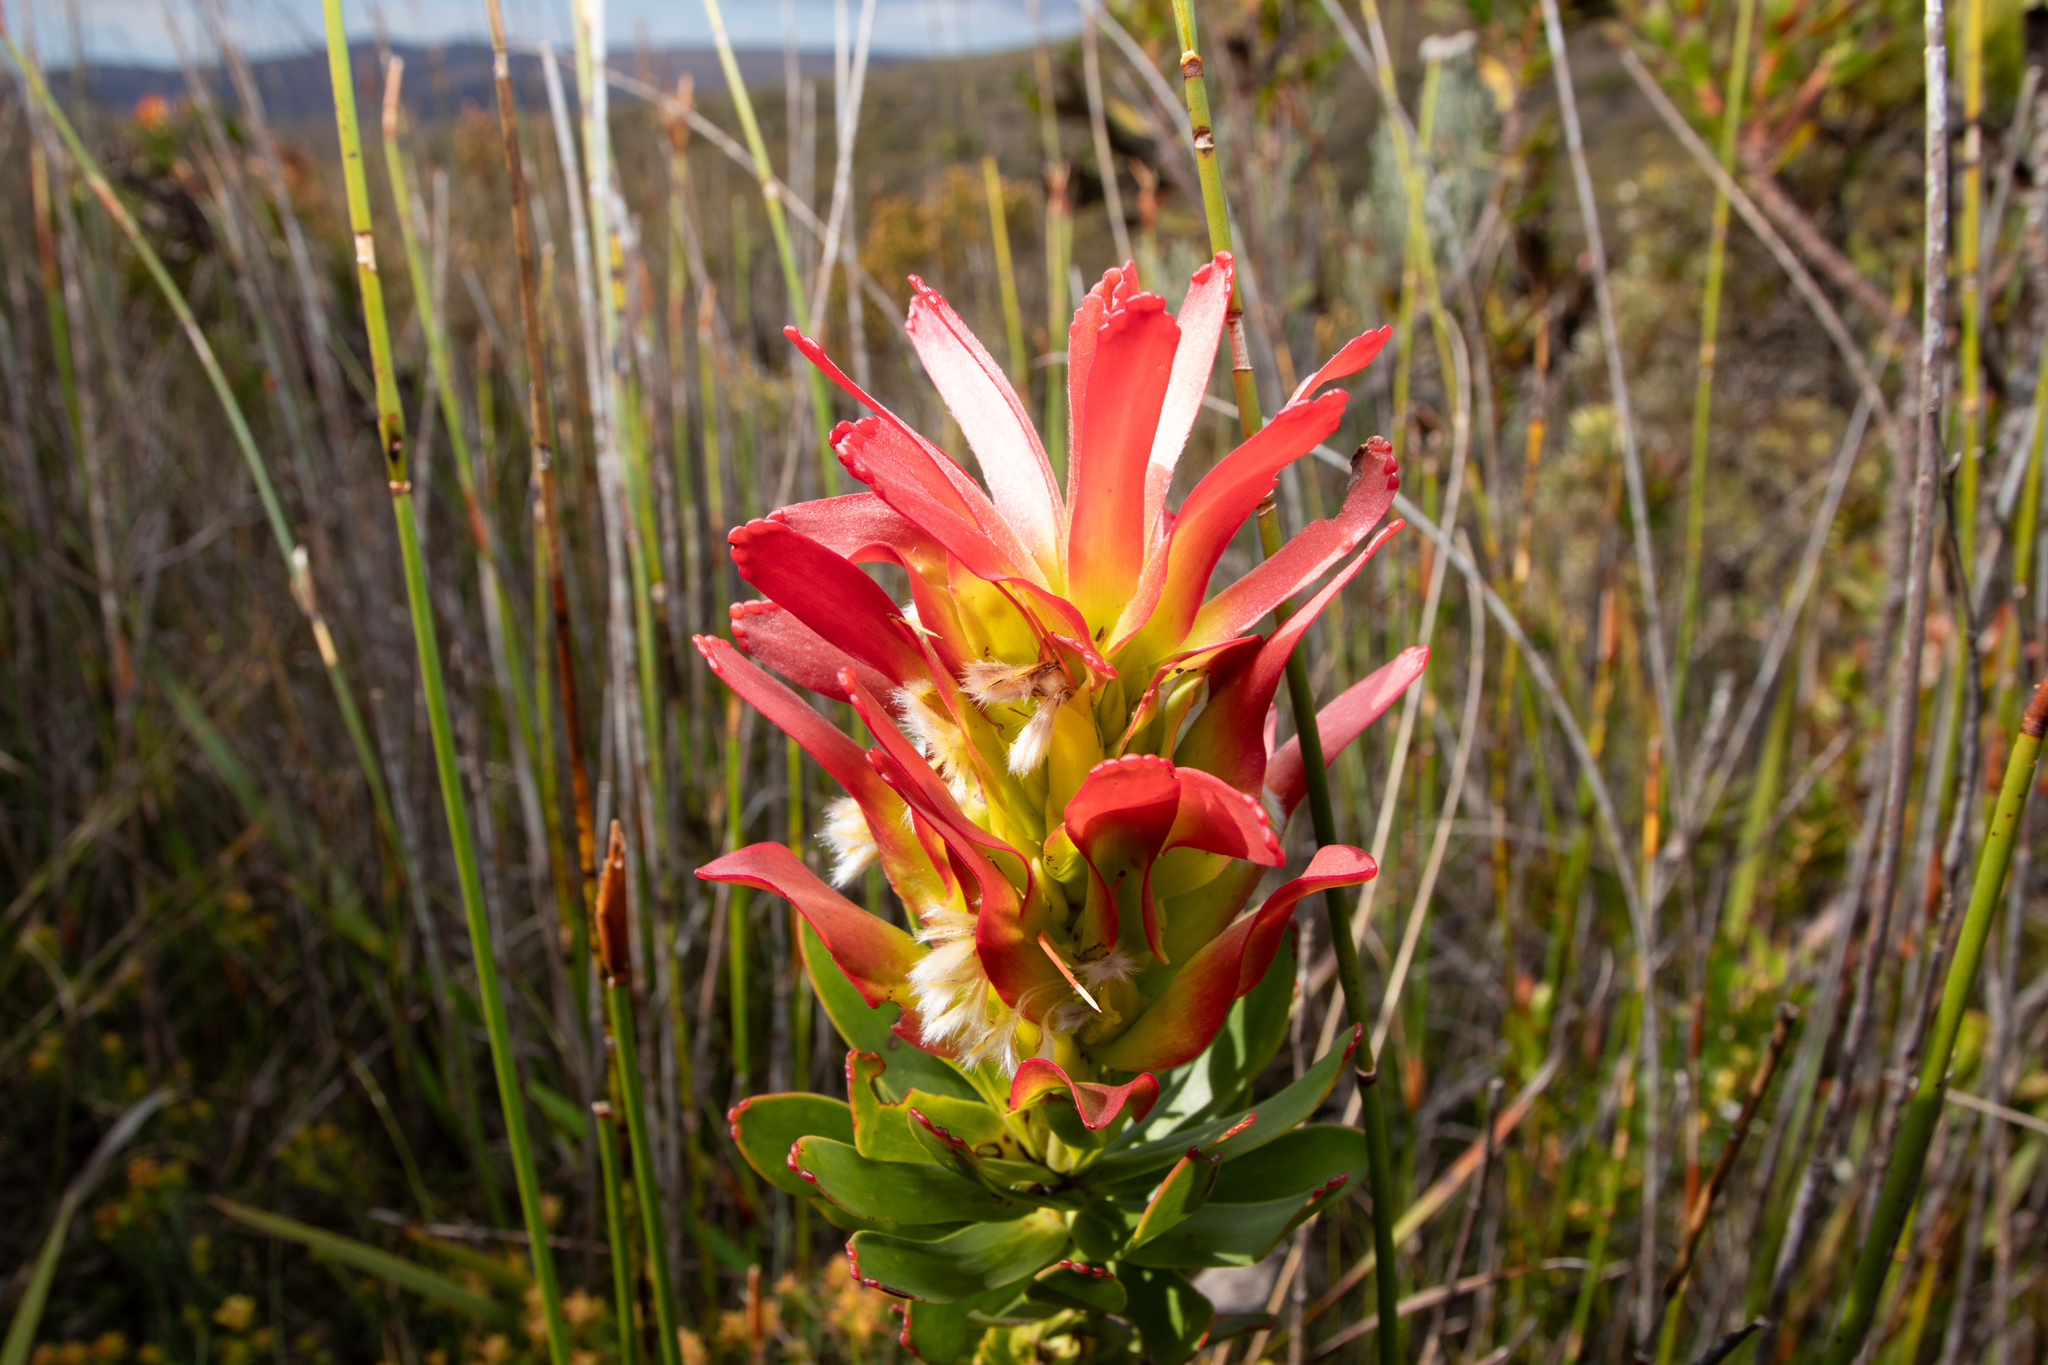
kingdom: Plantae
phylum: Tracheophyta
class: Magnoliopsida
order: Proteales
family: Proteaceae
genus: Mimetes
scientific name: Mimetes cucullatus
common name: Common pagoda
